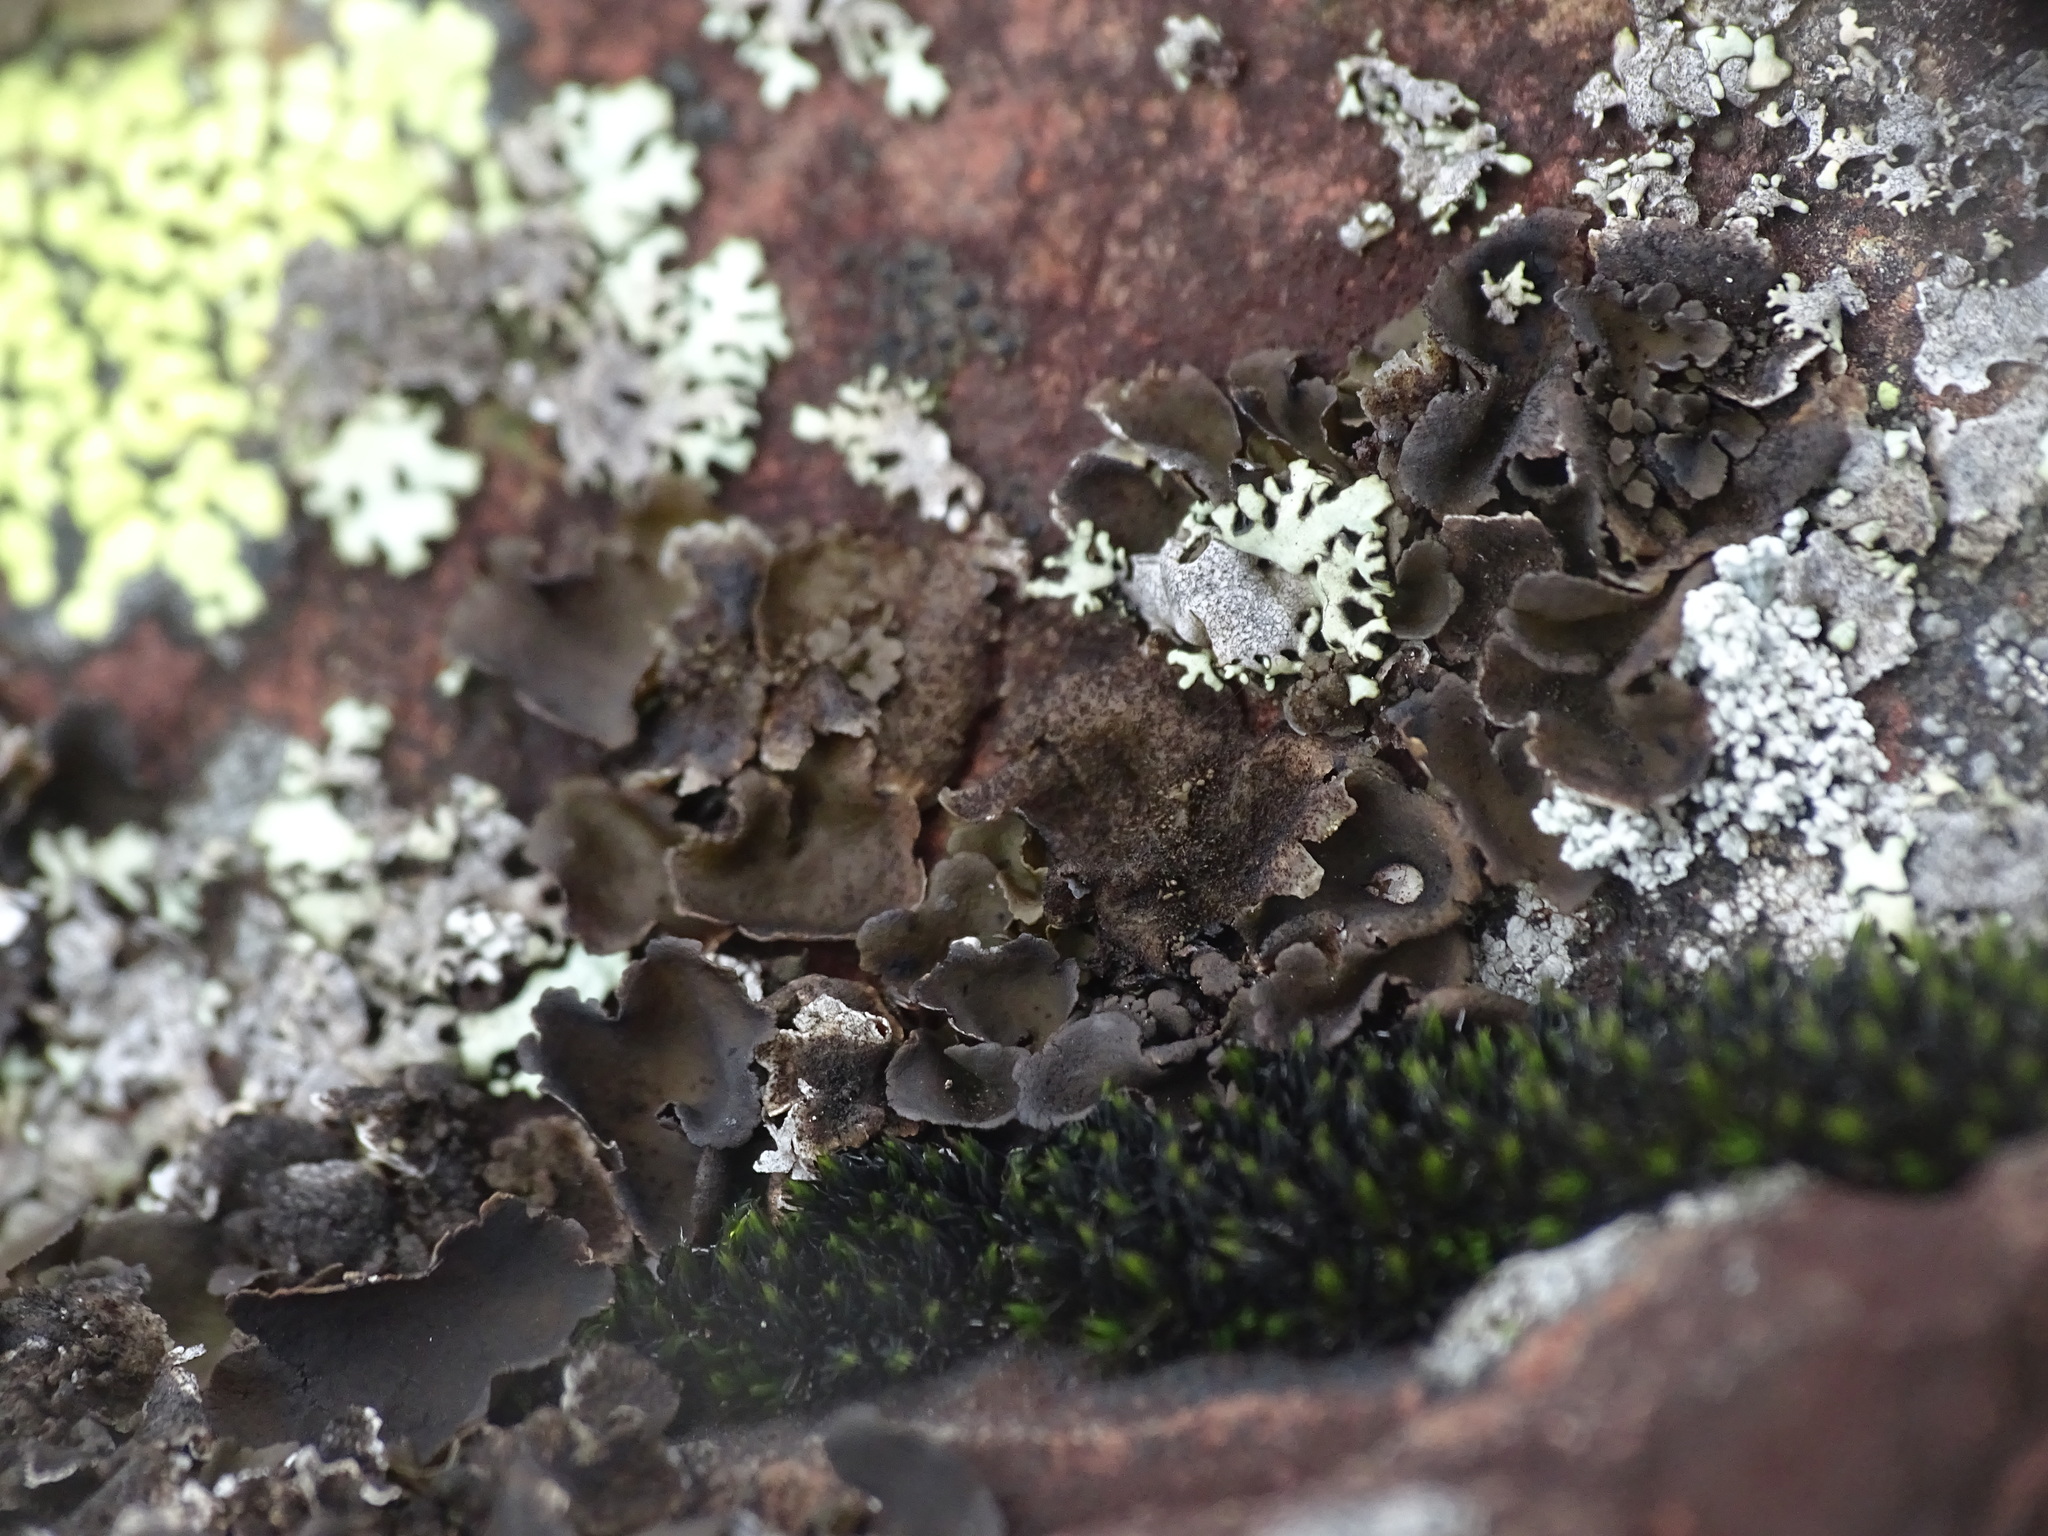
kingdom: Fungi
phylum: Ascomycota
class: Lecanoromycetes
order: Umbilicariales
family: Umbilicariaceae
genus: Umbilicaria
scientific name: Umbilicaria deusta
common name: Peppered rock tripe
